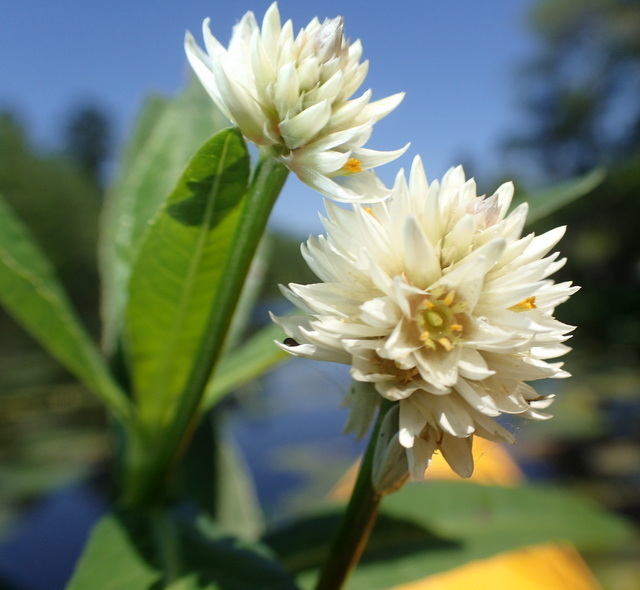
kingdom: Plantae
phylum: Tracheophyta
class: Magnoliopsida
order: Caryophyllales
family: Amaranthaceae
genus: Alternanthera
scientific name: Alternanthera philoxeroides
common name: Alligatorweed
